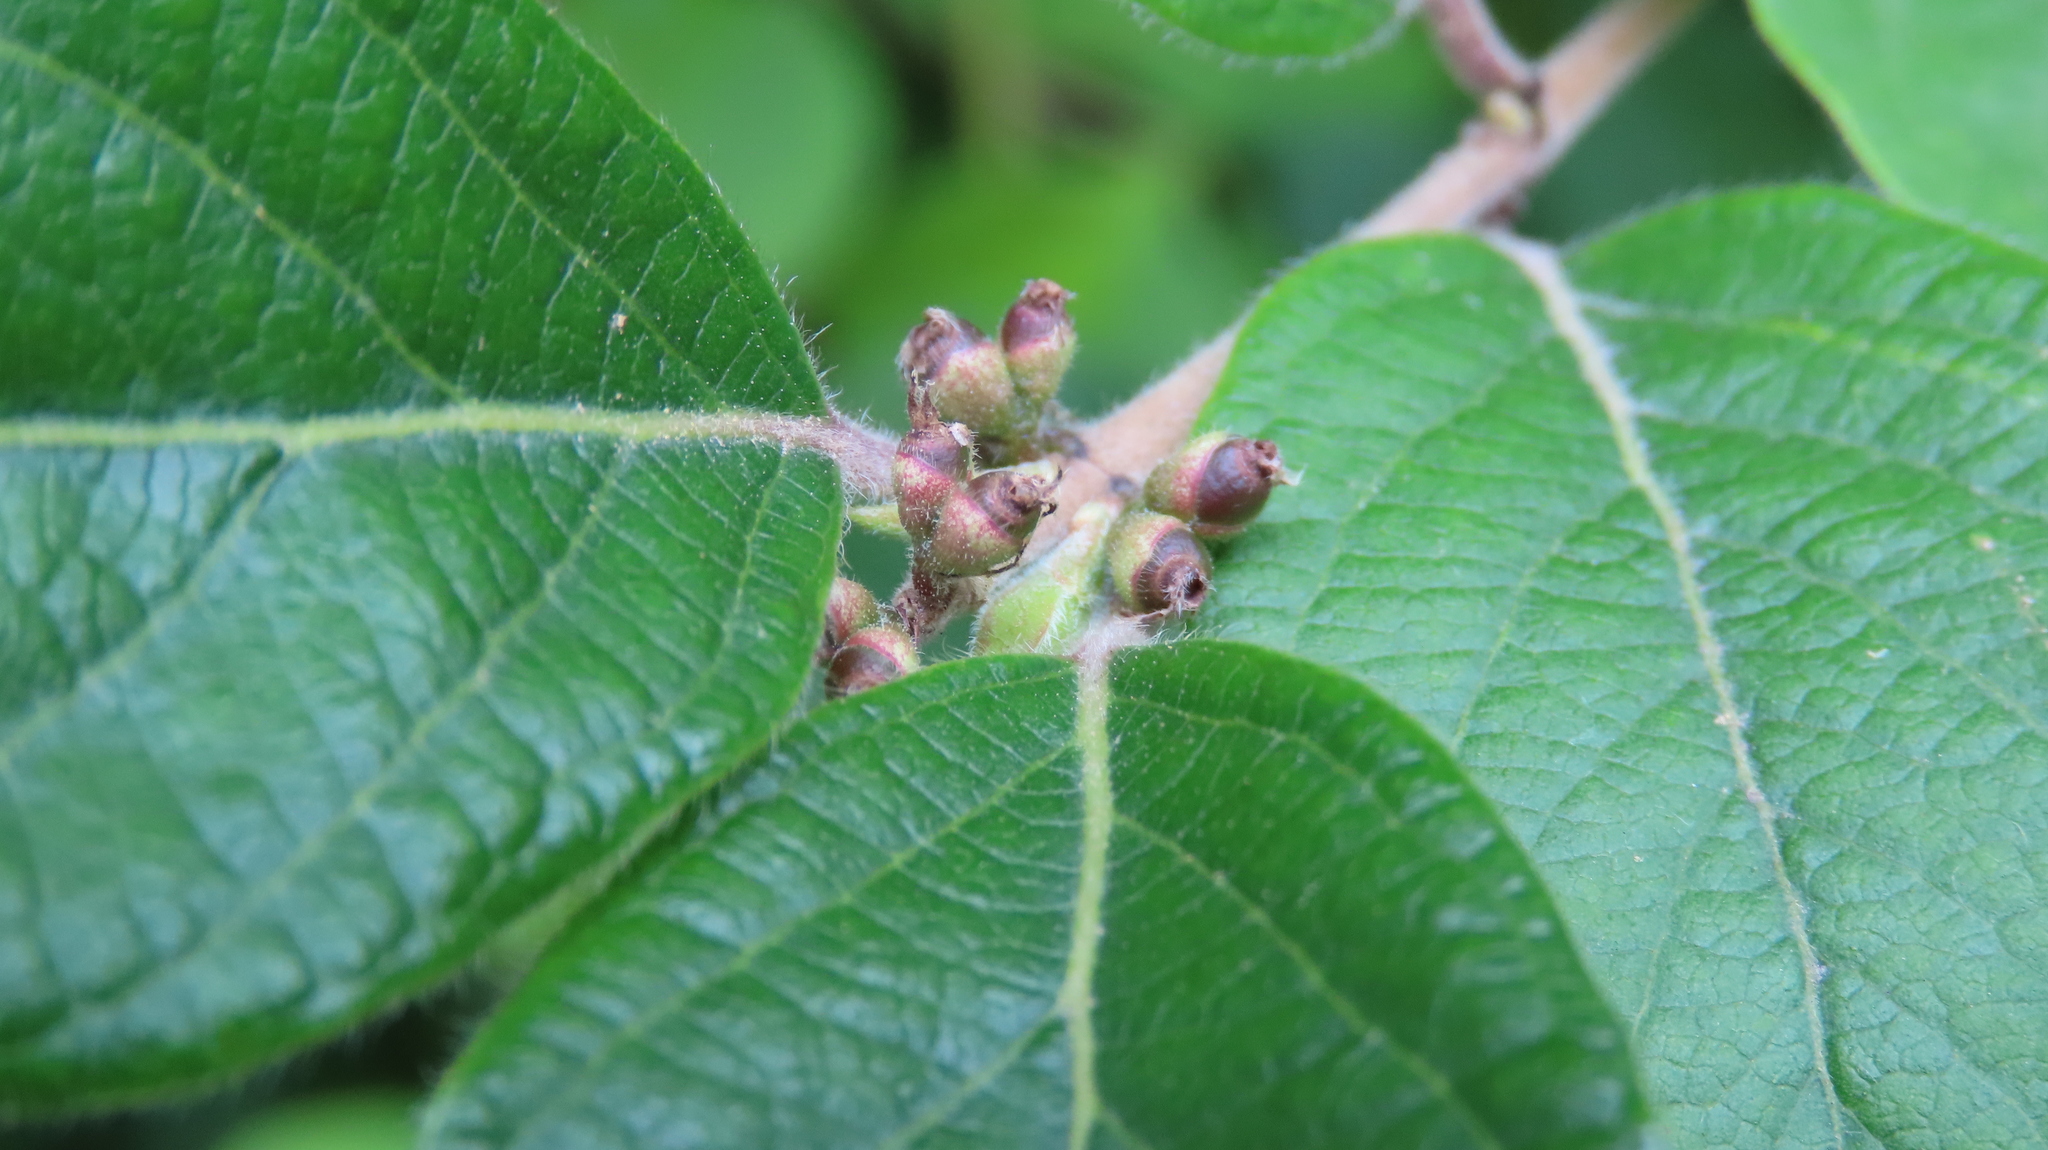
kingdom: Plantae
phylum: Tracheophyta
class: Magnoliopsida
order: Dipsacales
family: Caprifoliaceae
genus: Lonicera
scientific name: Lonicera maackii
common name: Amur honeysuckle
